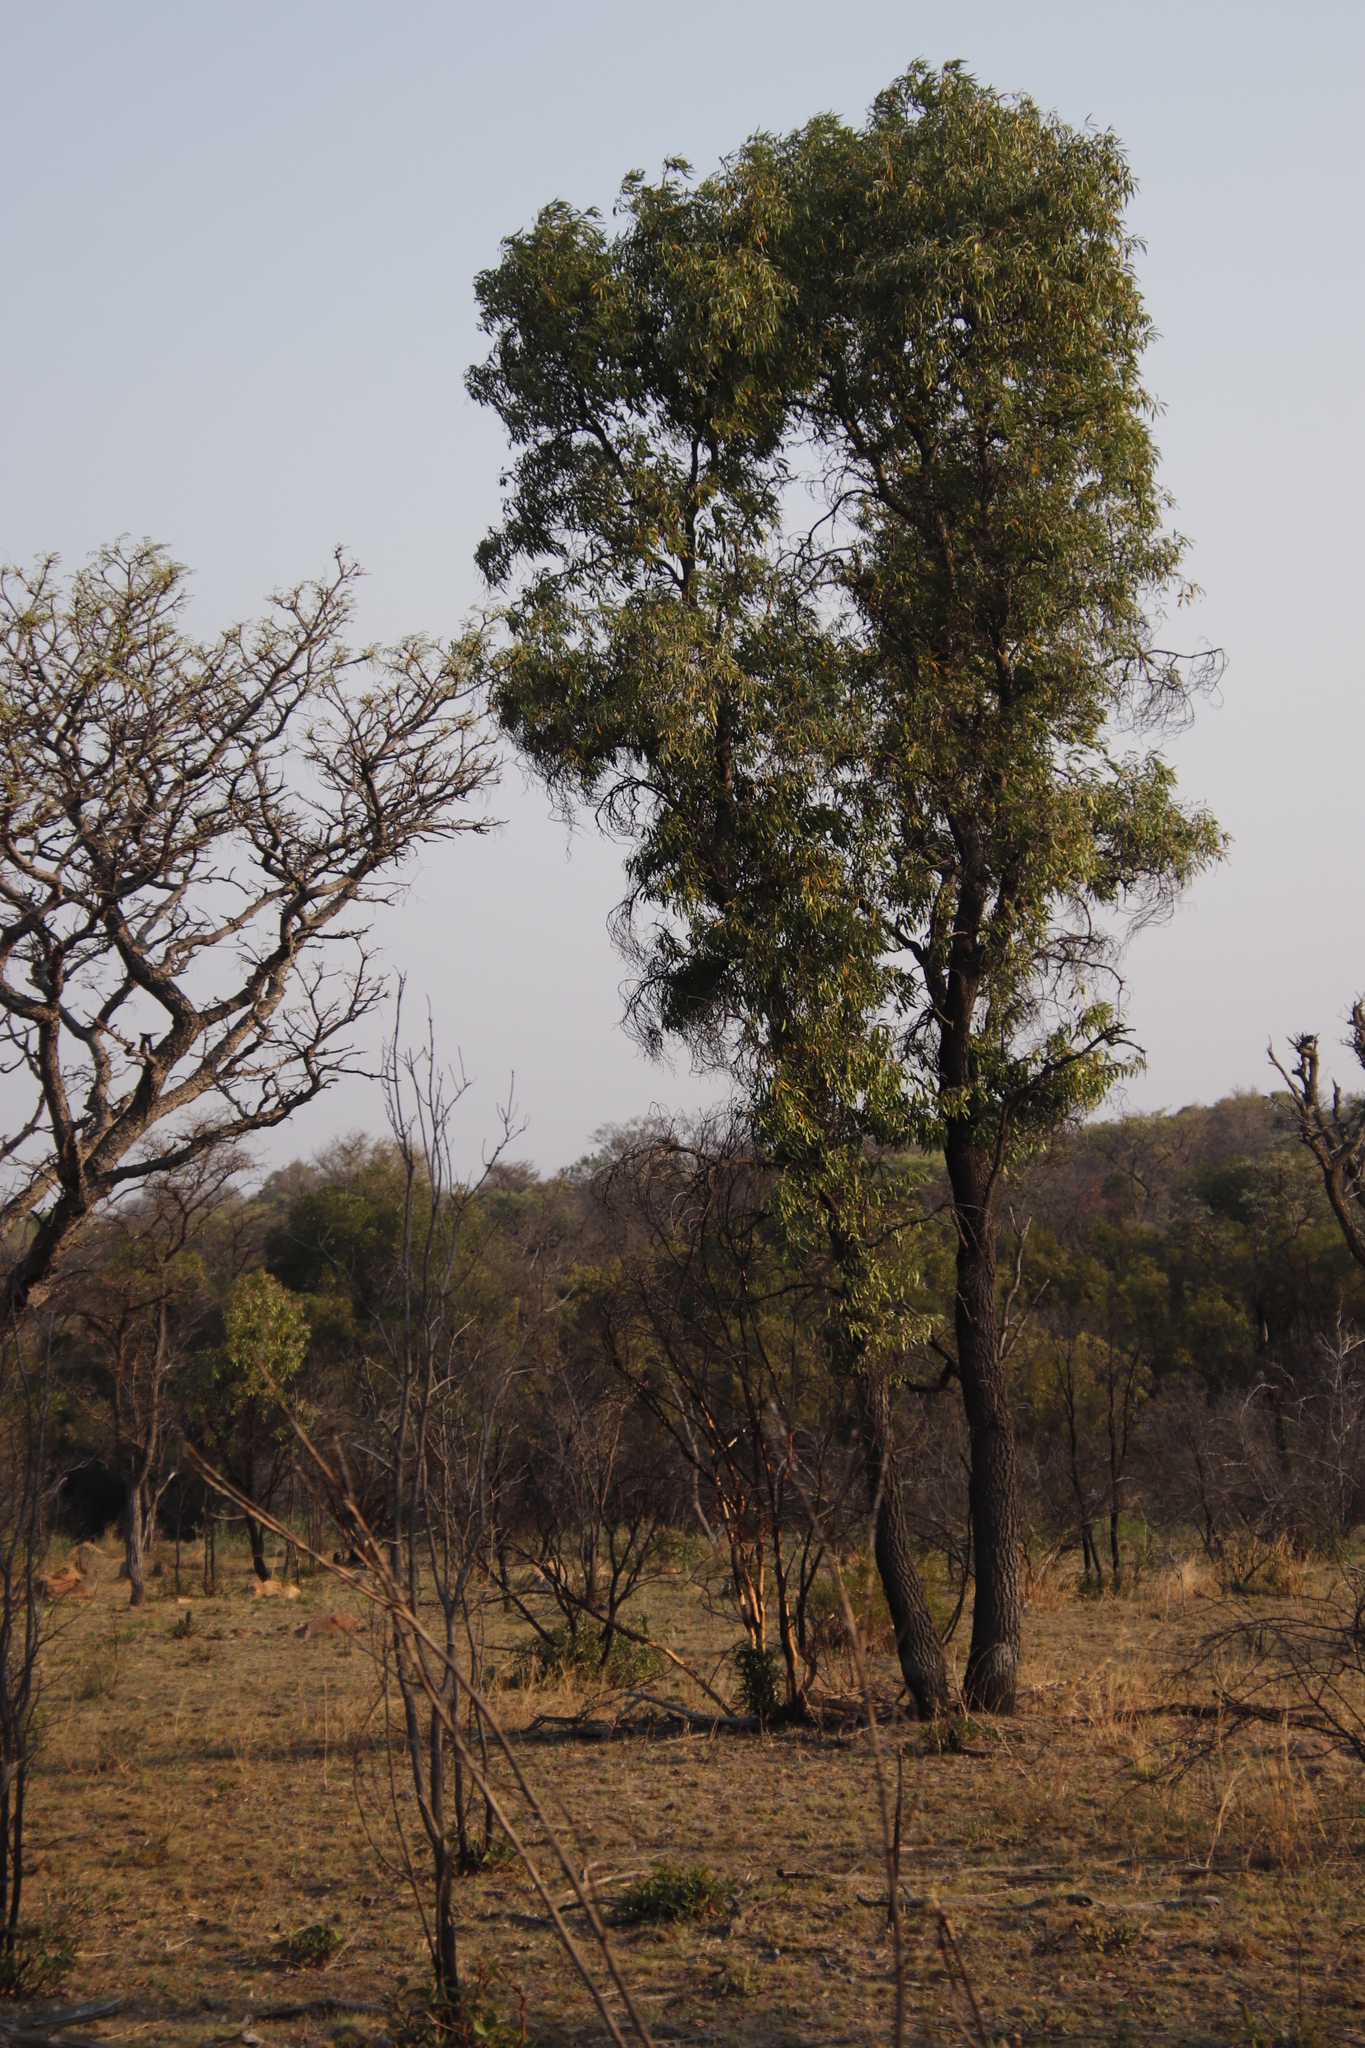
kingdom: Plantae
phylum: Tracheophyta
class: Magnoliopsida
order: Proteales
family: Proteaceae
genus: Faurea
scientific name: Faurea saligna
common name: African bean
